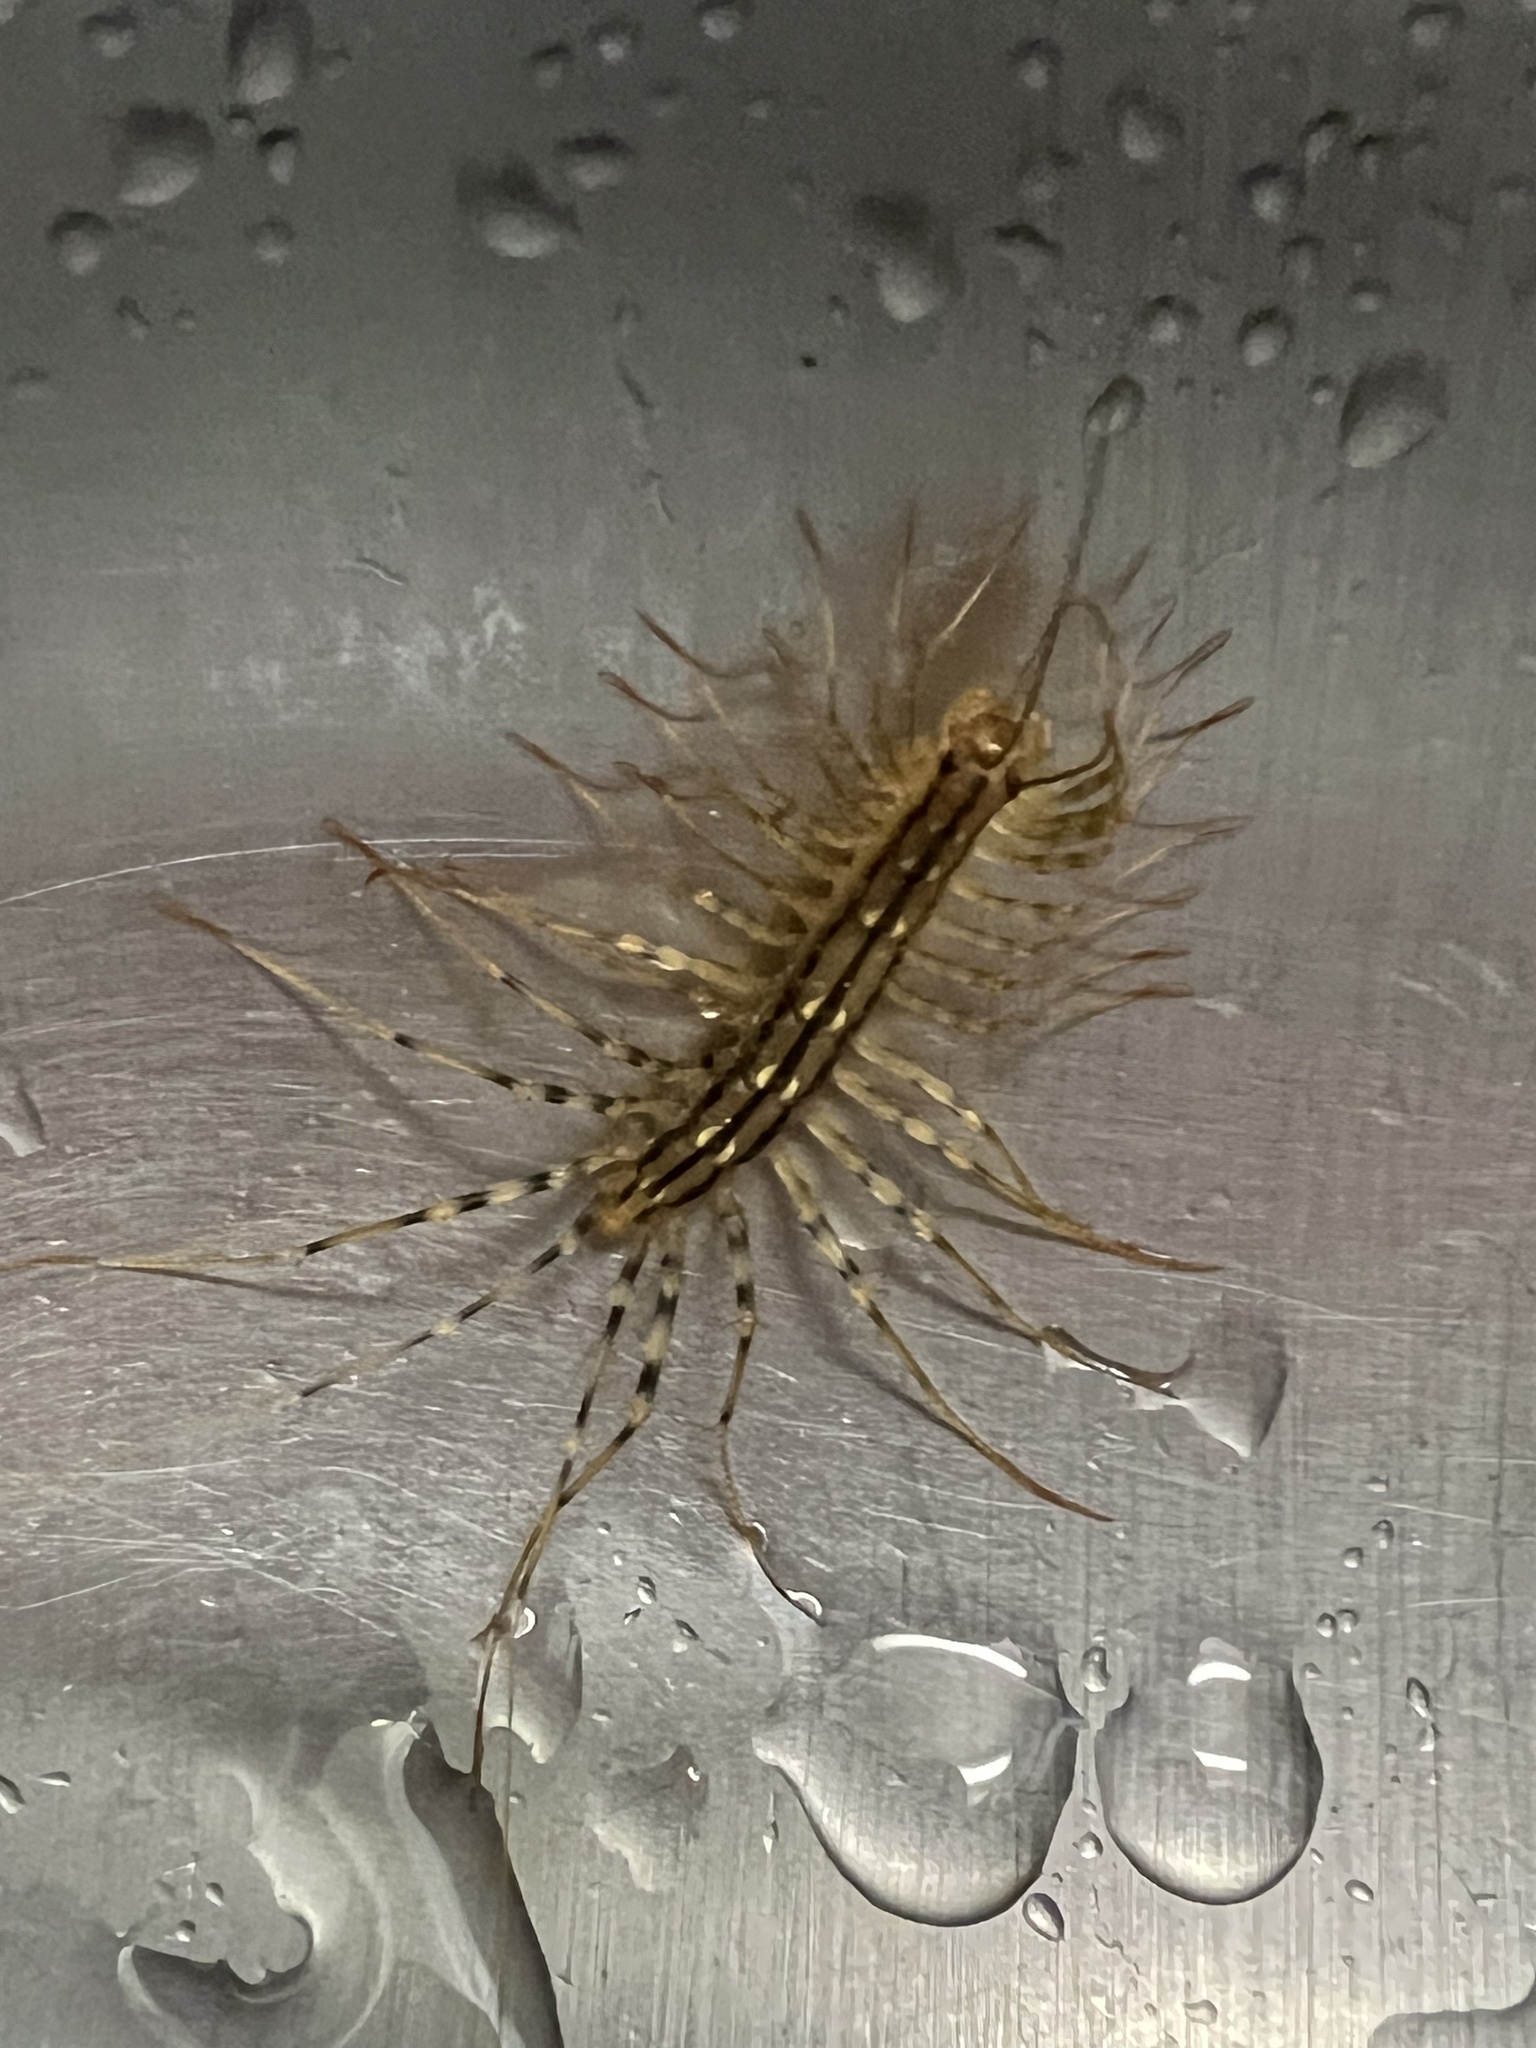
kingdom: Animalia
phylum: Arthropoda
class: Chilopoda
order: Scutigeromorpha
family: Scutigeridae
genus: Scutigera
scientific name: Scutigera coleoptrata
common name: House centipede
